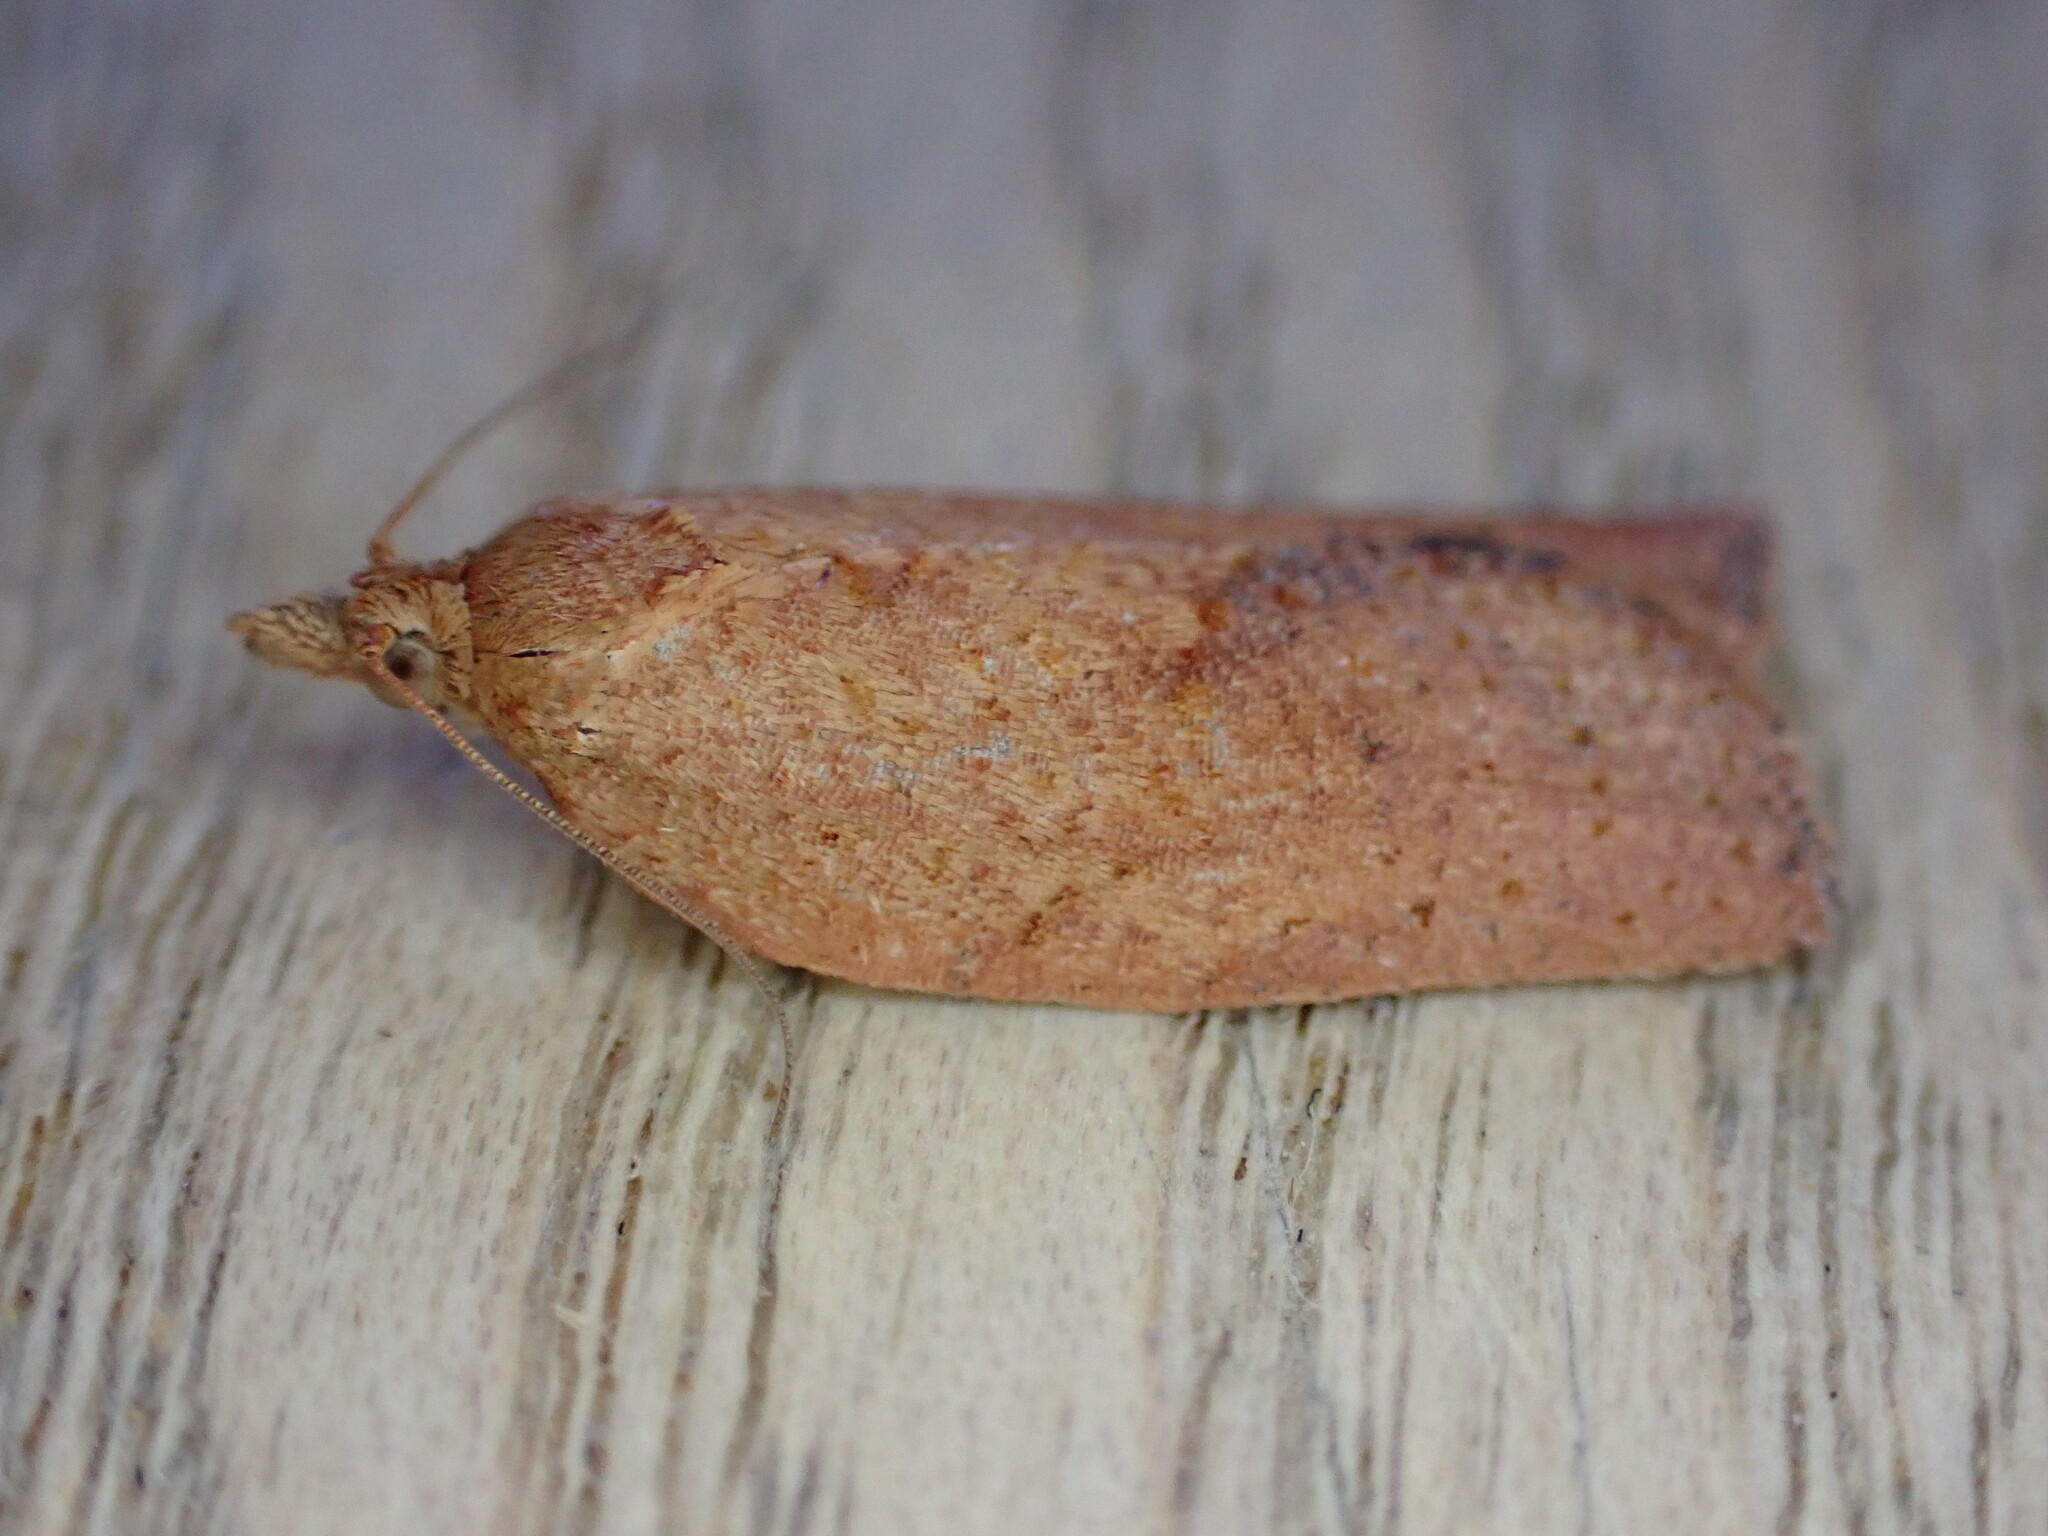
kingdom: Animalia
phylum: Arthropoda
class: Insecta
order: Lepidoptera
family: Tortricidae
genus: Epiphyas
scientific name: Epiphyas postvittana
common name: Light brown apple moth
